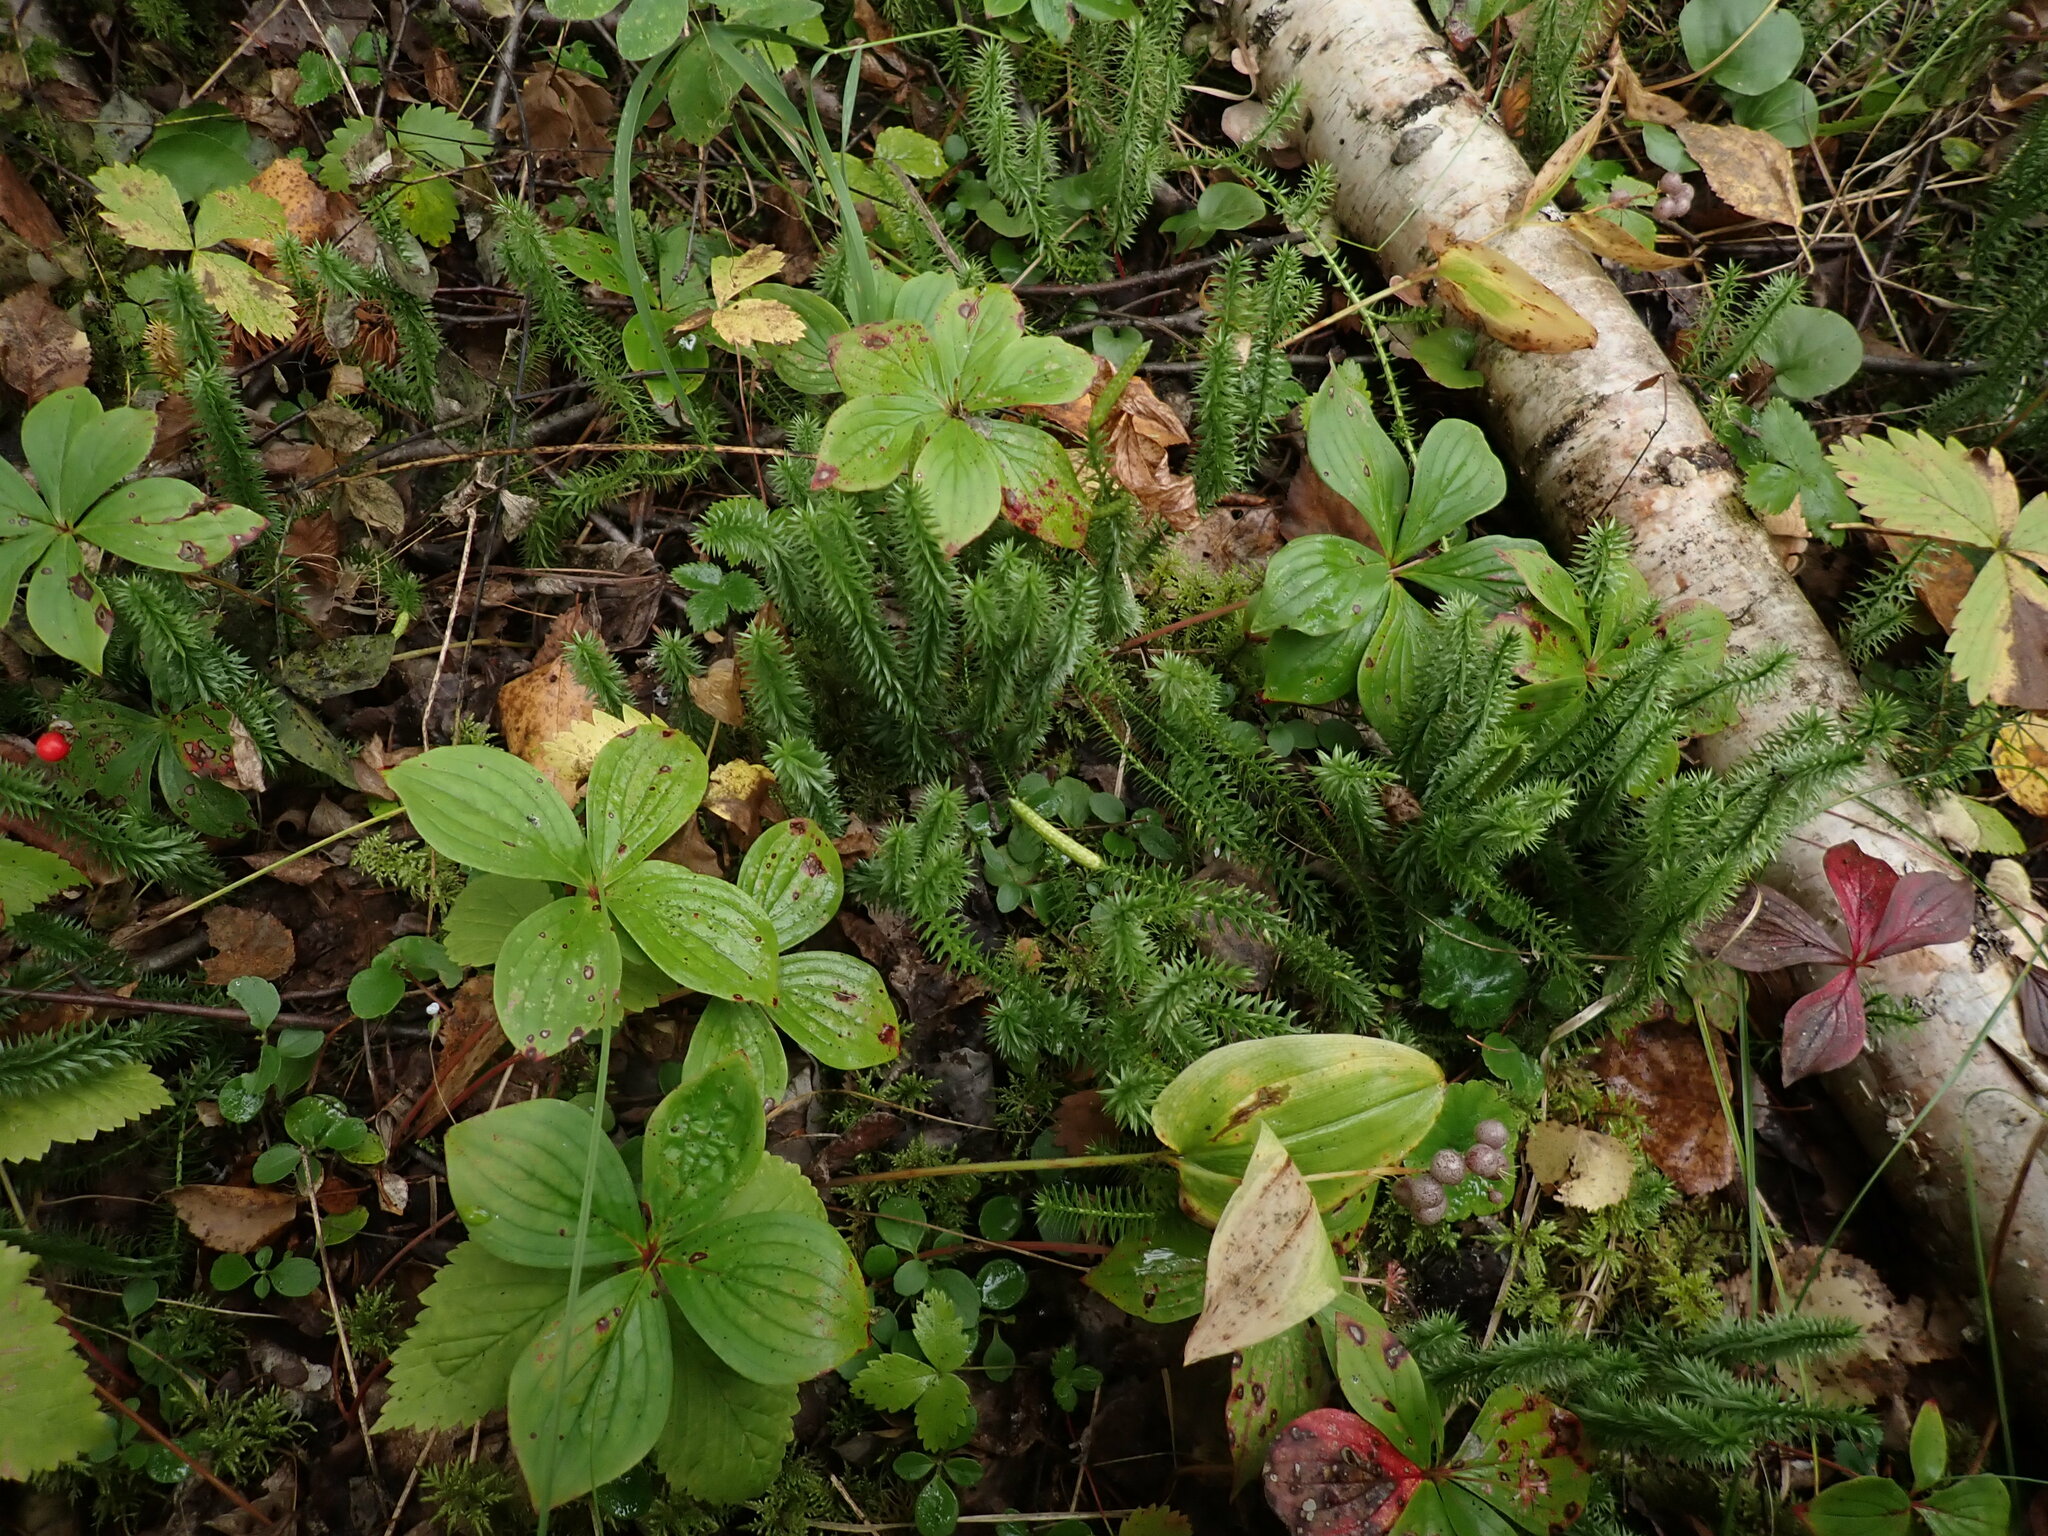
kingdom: Plantae
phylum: Tracheophyta
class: Lycopodiopsida
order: Lycopodiales
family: Lycopodiaceae
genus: Spinulum
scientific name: Spinulum annotinum
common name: Interrupted club-moss
